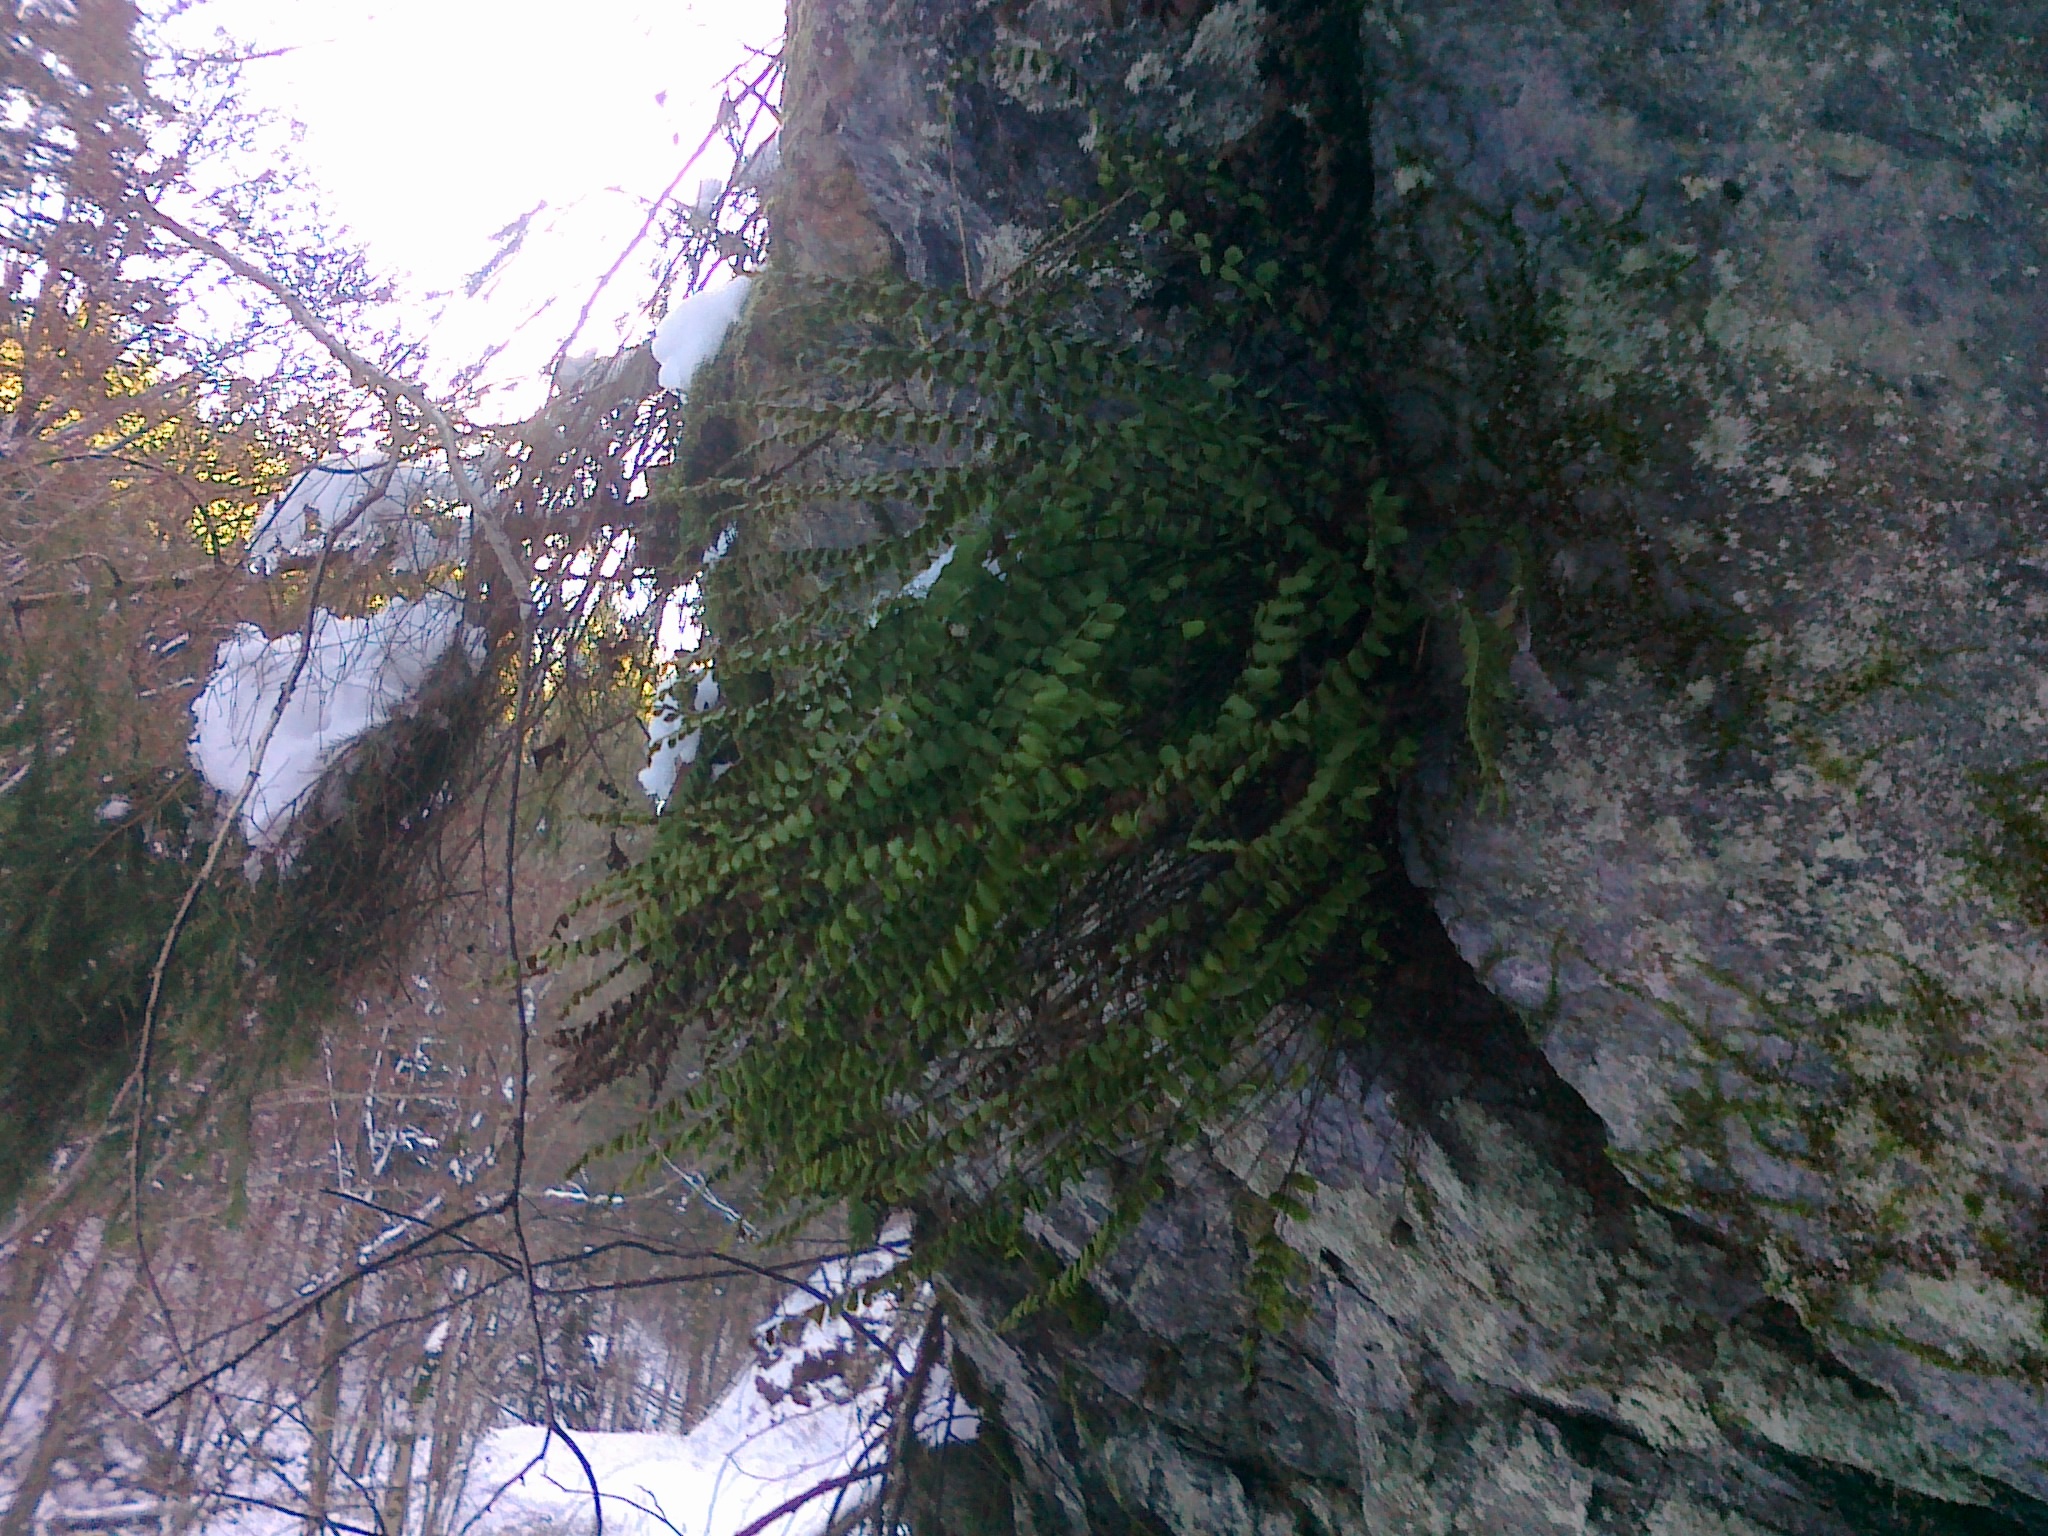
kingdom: Plantae
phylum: Tracheophyta
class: Polypodiopsida
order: Polypodiales
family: Aspleniaceae
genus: Asplenium
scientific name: Asplenium trichomanes
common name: Maidenhair spleenwort
